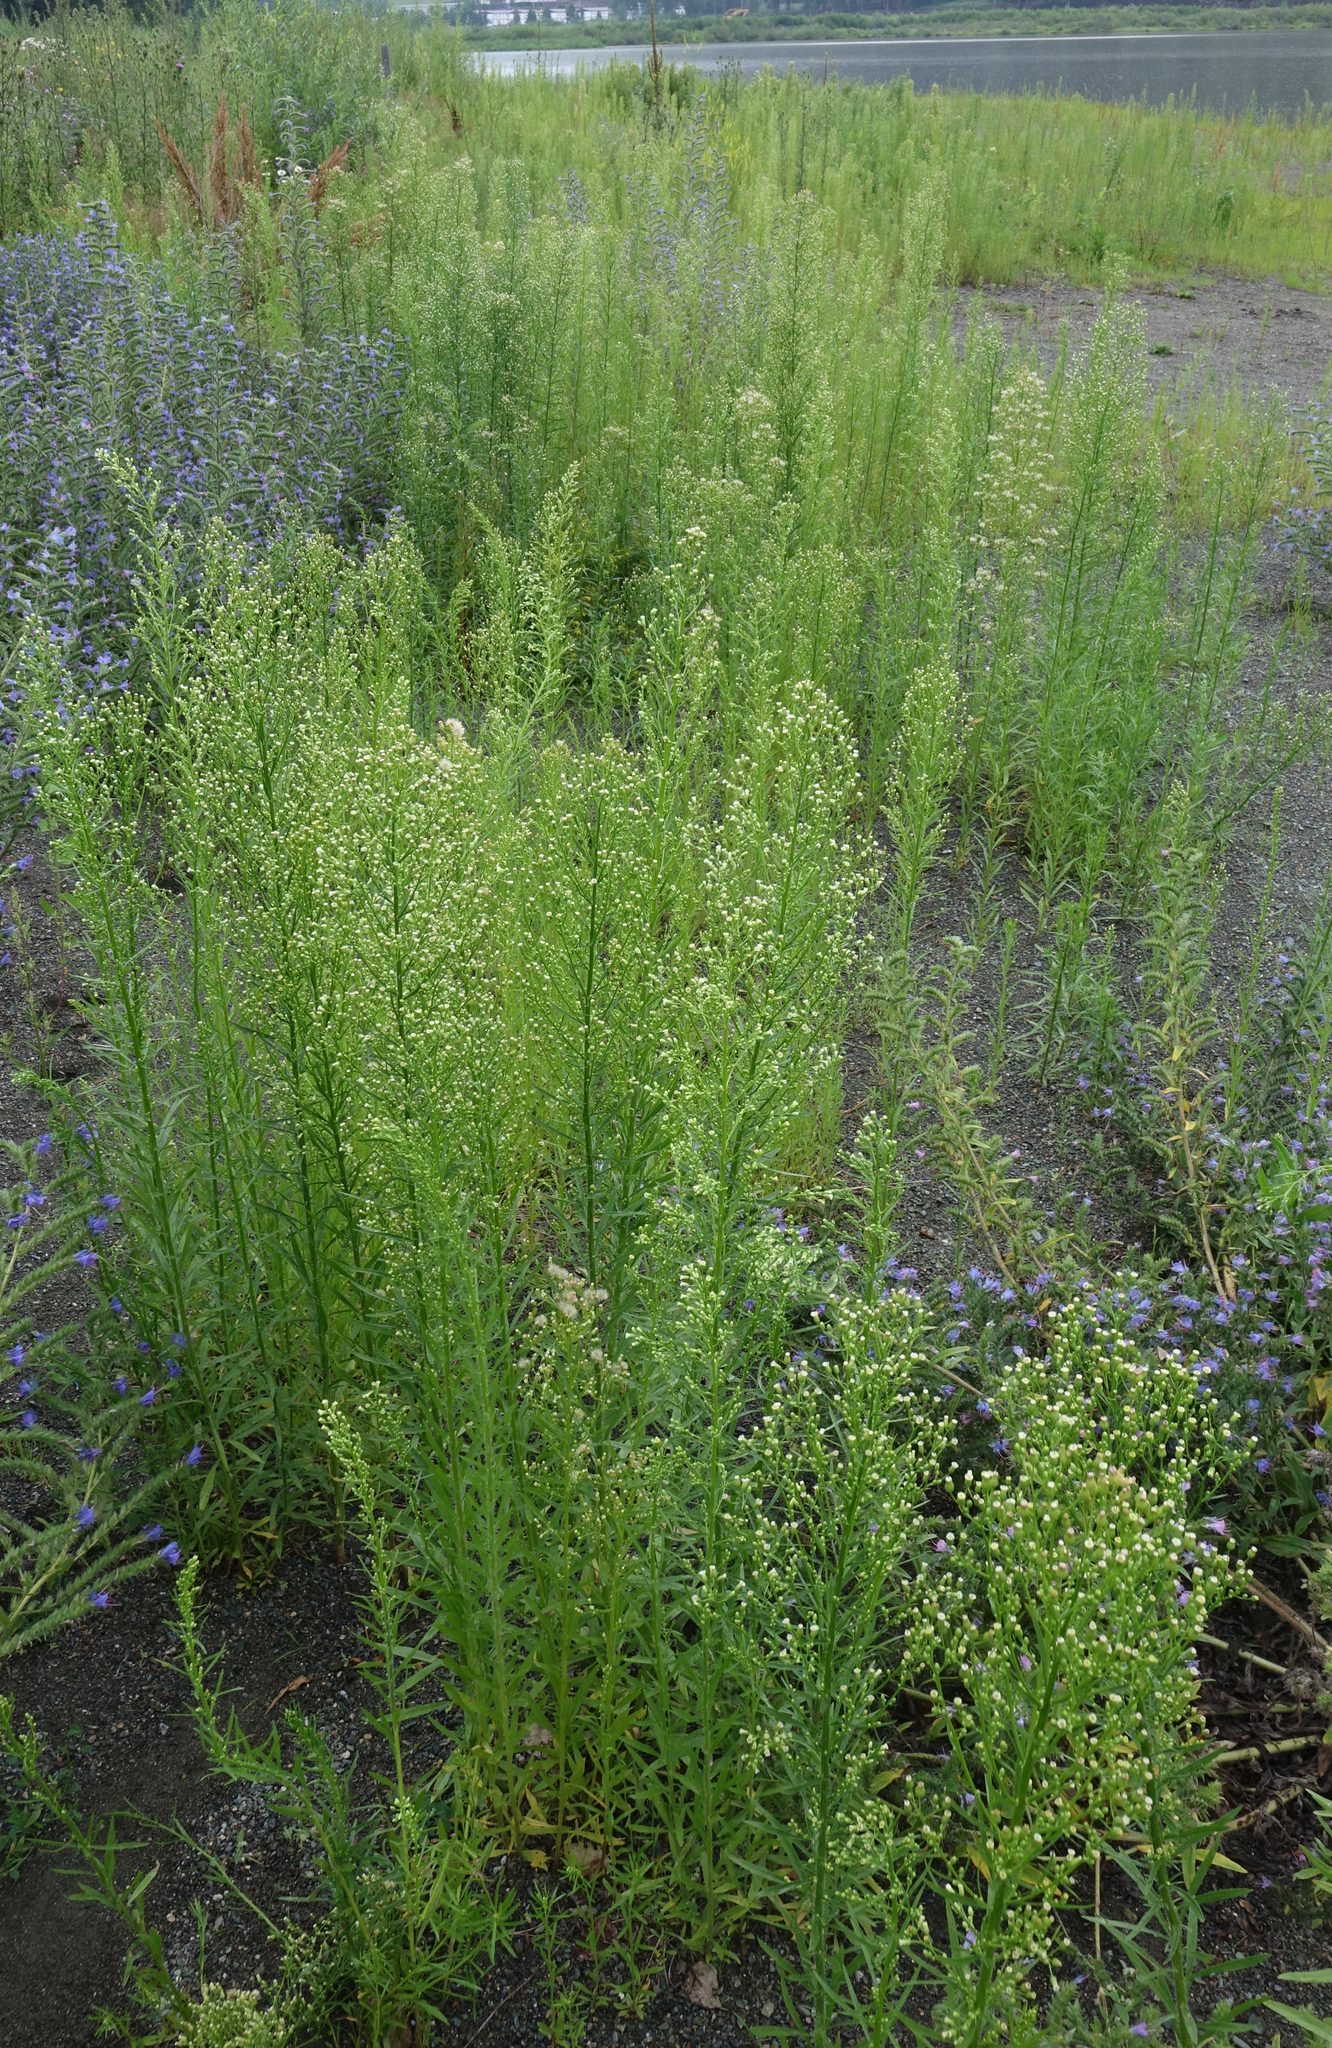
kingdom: Plantae
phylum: Tracheophyta
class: Magnoliopsida
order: Asterales
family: Asteraceae
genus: Erigeron
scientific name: Erigeron canadensis
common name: Canadian fleabane
